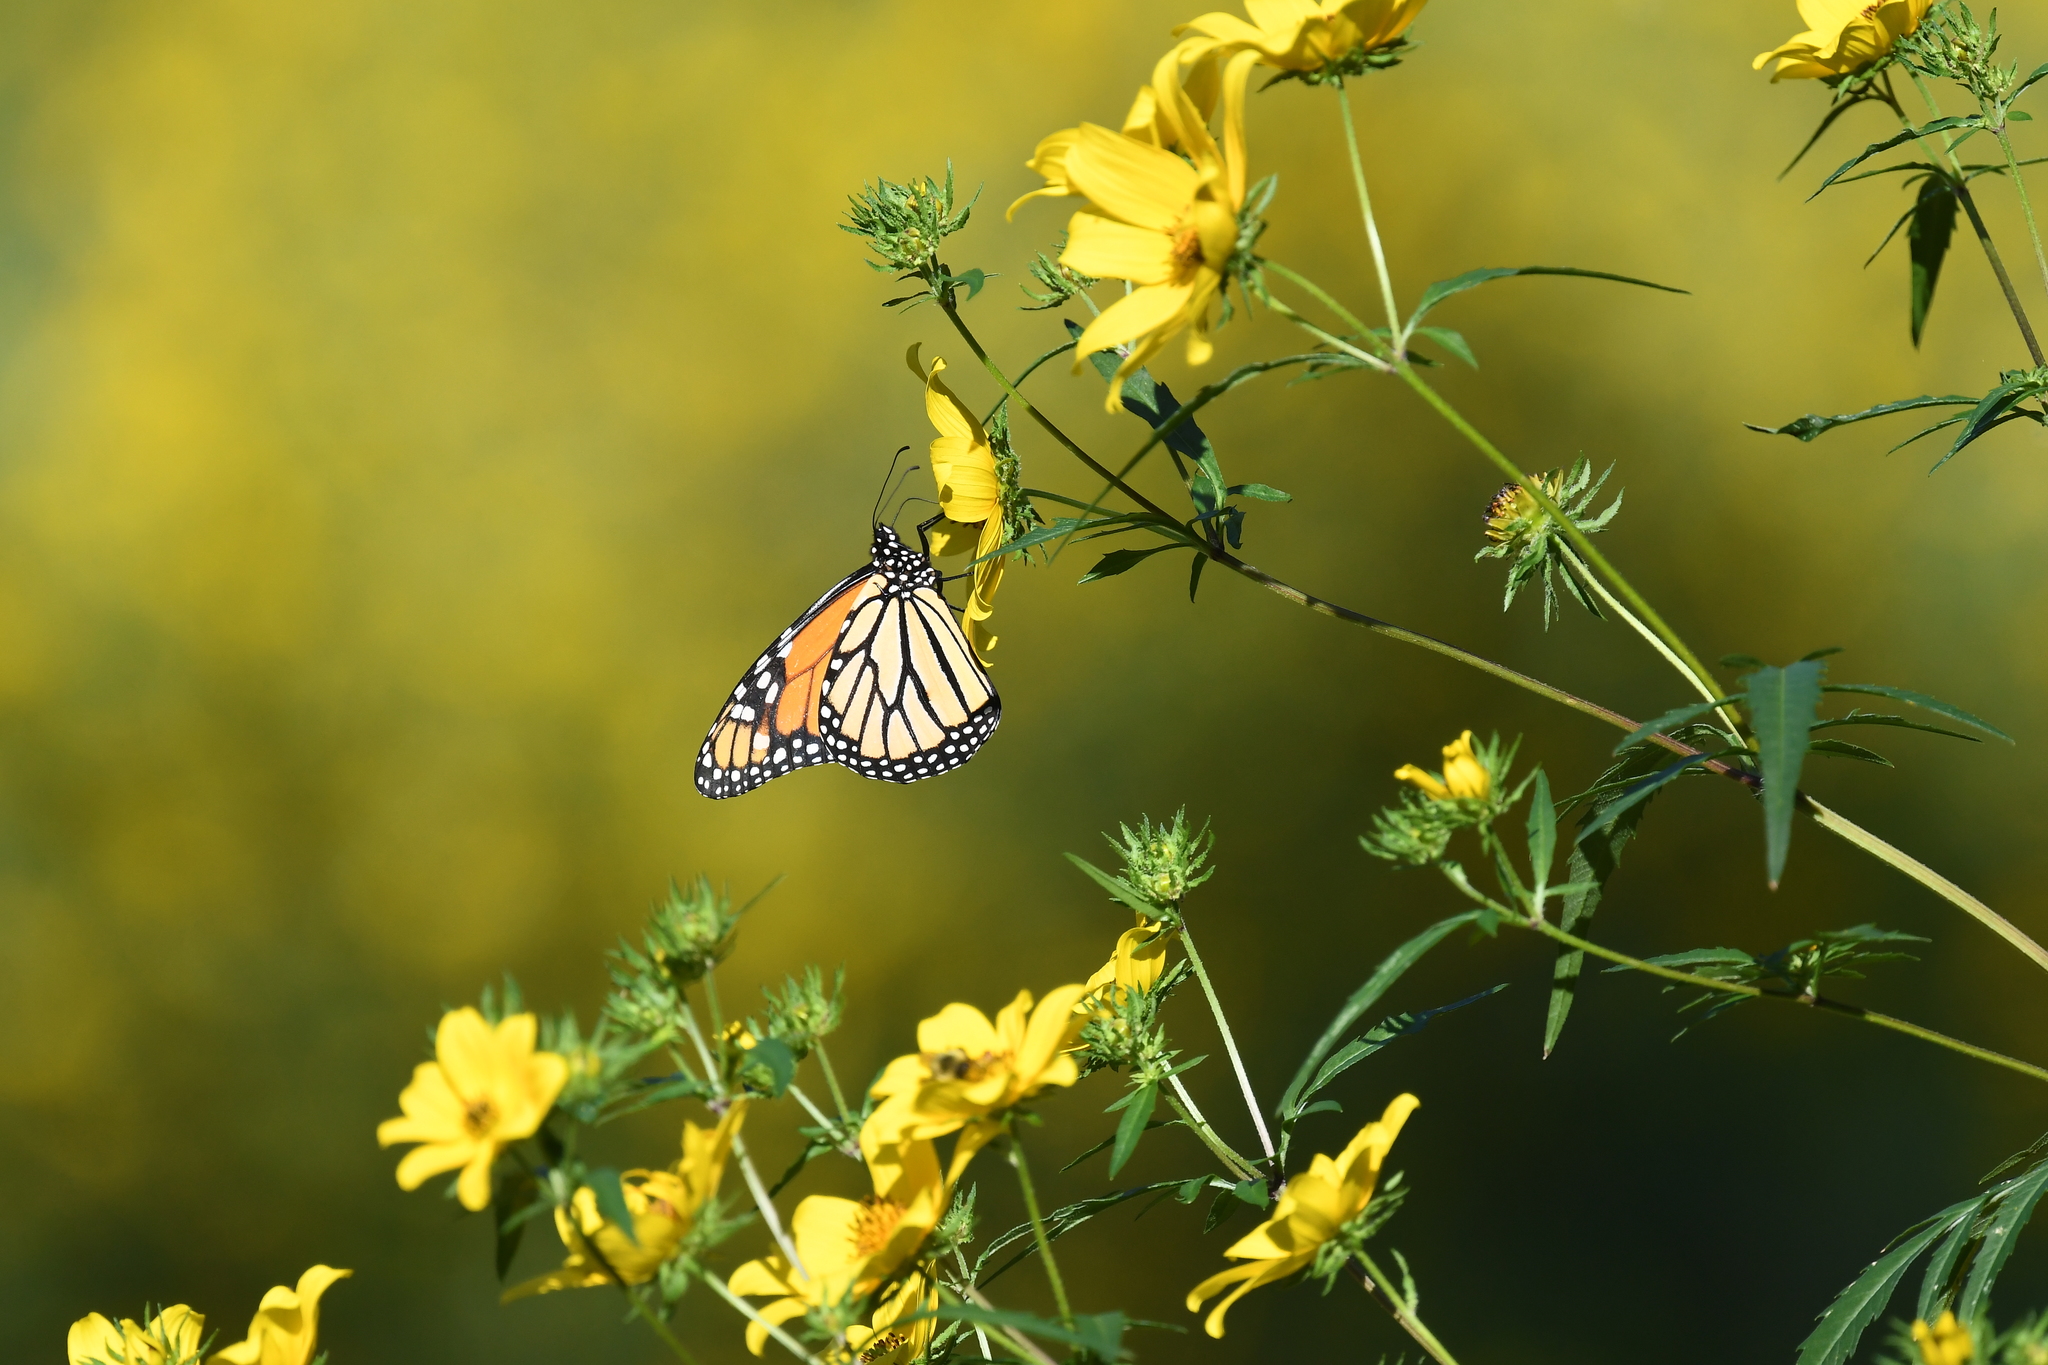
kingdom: Animalia
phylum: Arthropoda
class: Insecta
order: Lepidoptera
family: Nymphalidae
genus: Danaus
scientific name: Danaus plexippus
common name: Monarch
